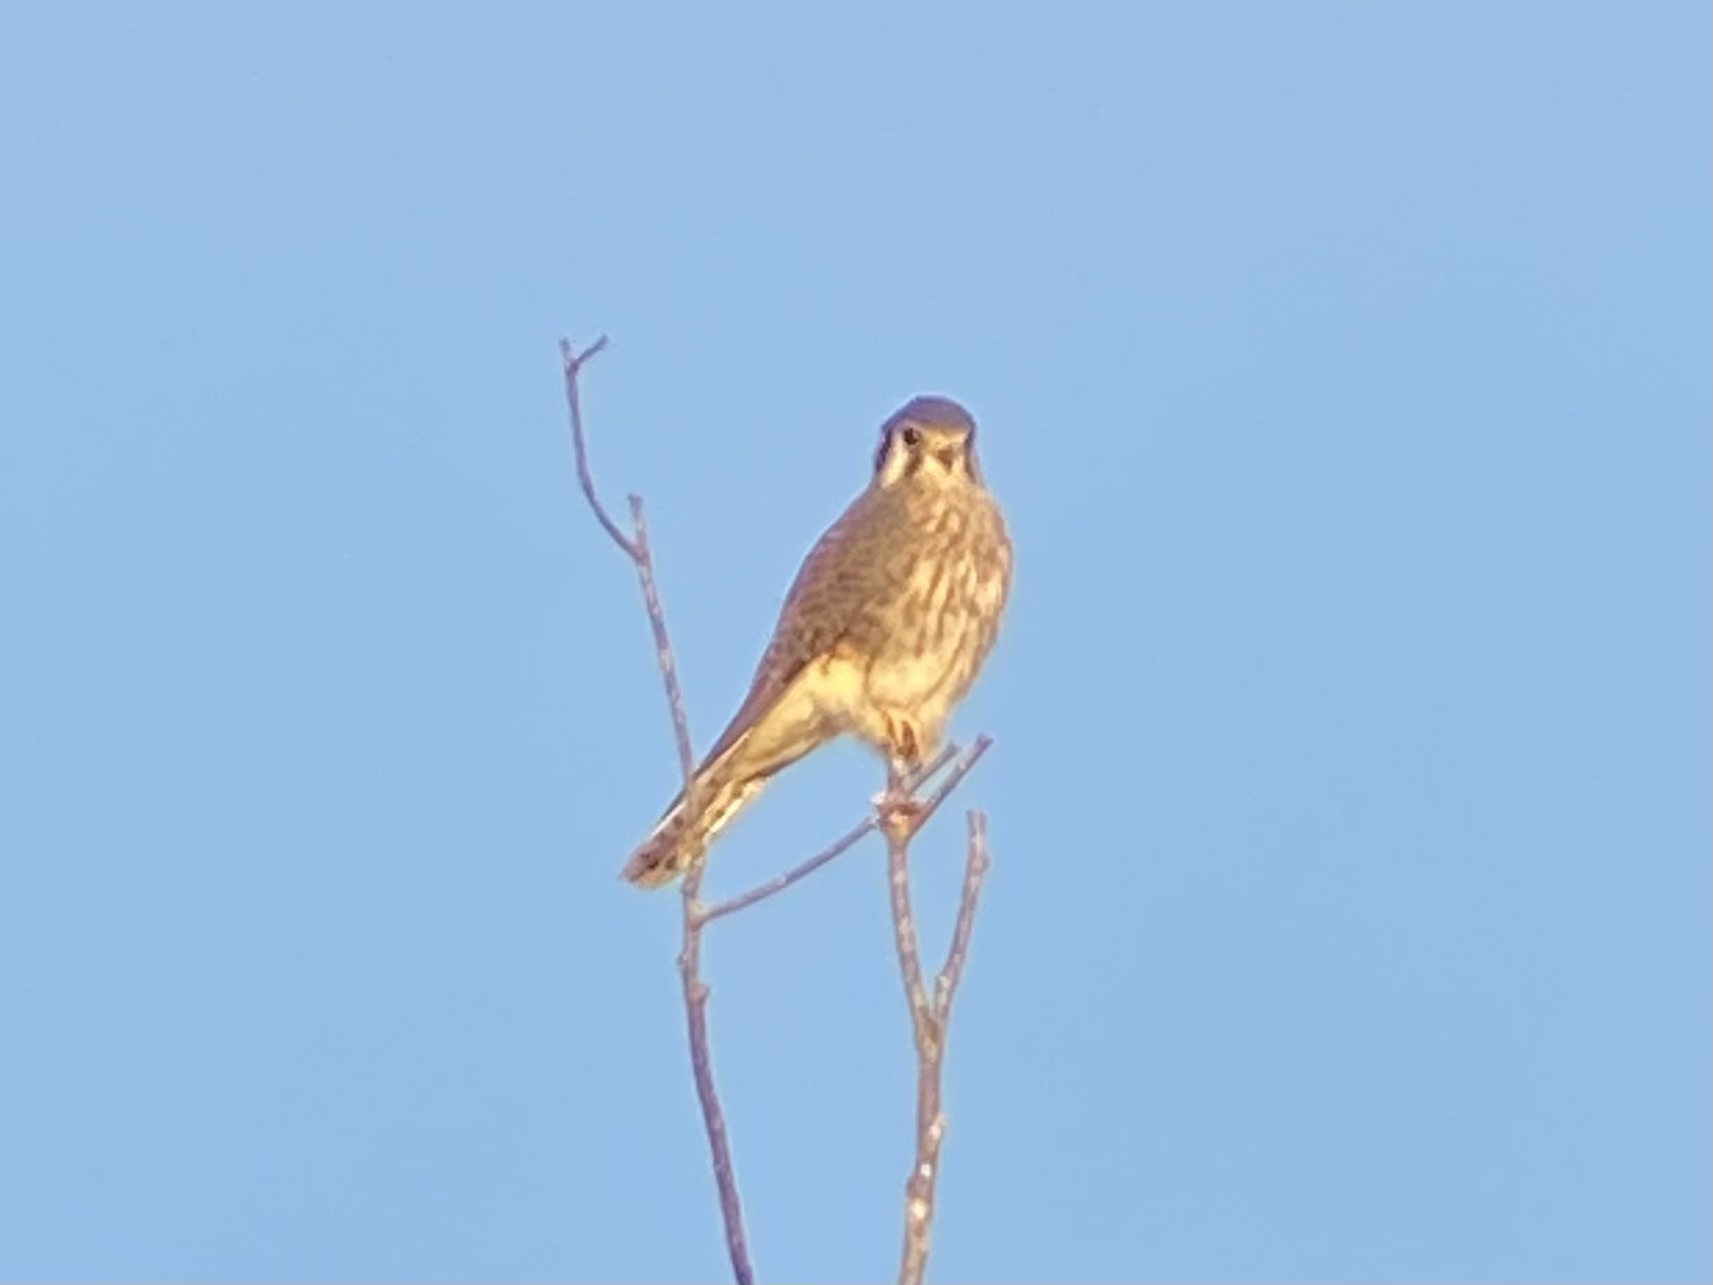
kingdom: Animalia
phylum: Chordata
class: Aves
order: Falconiformes
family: Falconidae
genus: Falco
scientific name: Falco sparverius
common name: American kestrel
